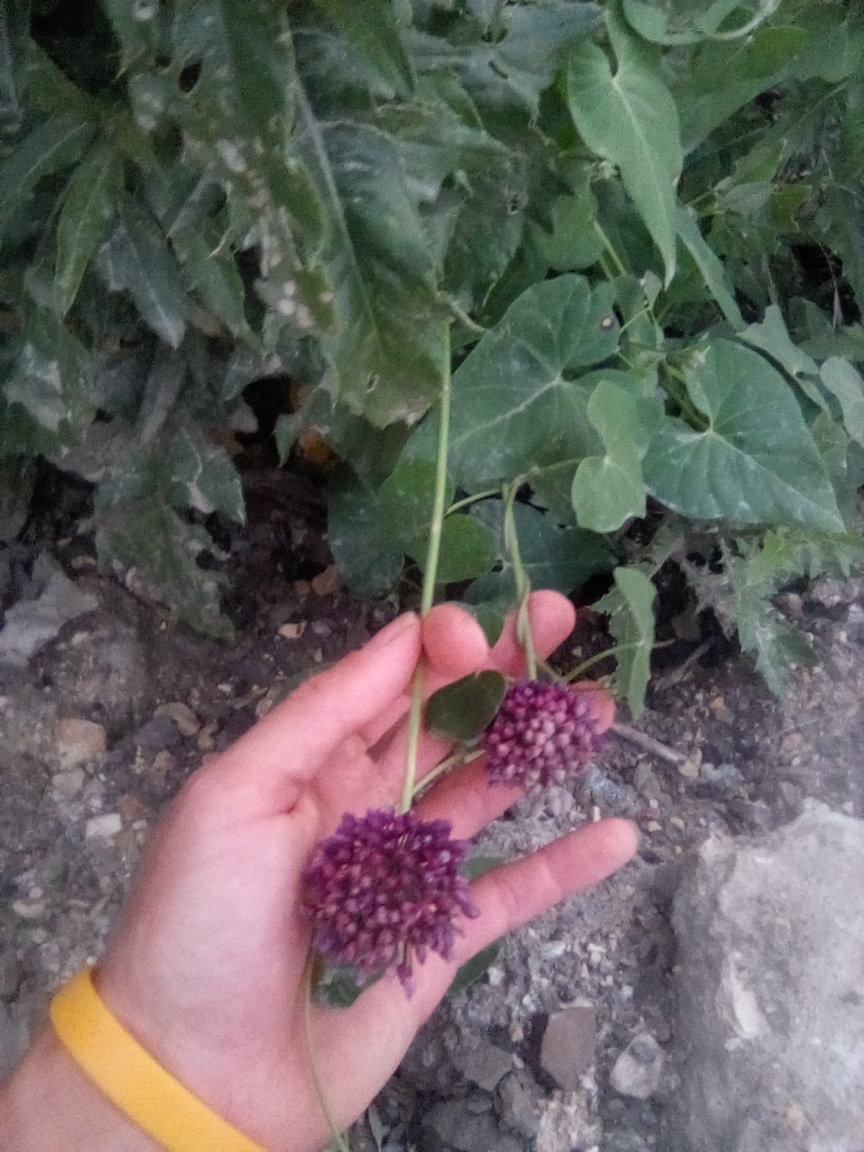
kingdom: Plantae
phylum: Tracheophyta
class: Liliopsida
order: Asparagales
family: Amaryllidaceae
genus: Allium
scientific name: Allium atroviolaceum
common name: Broadleaf wild leek
